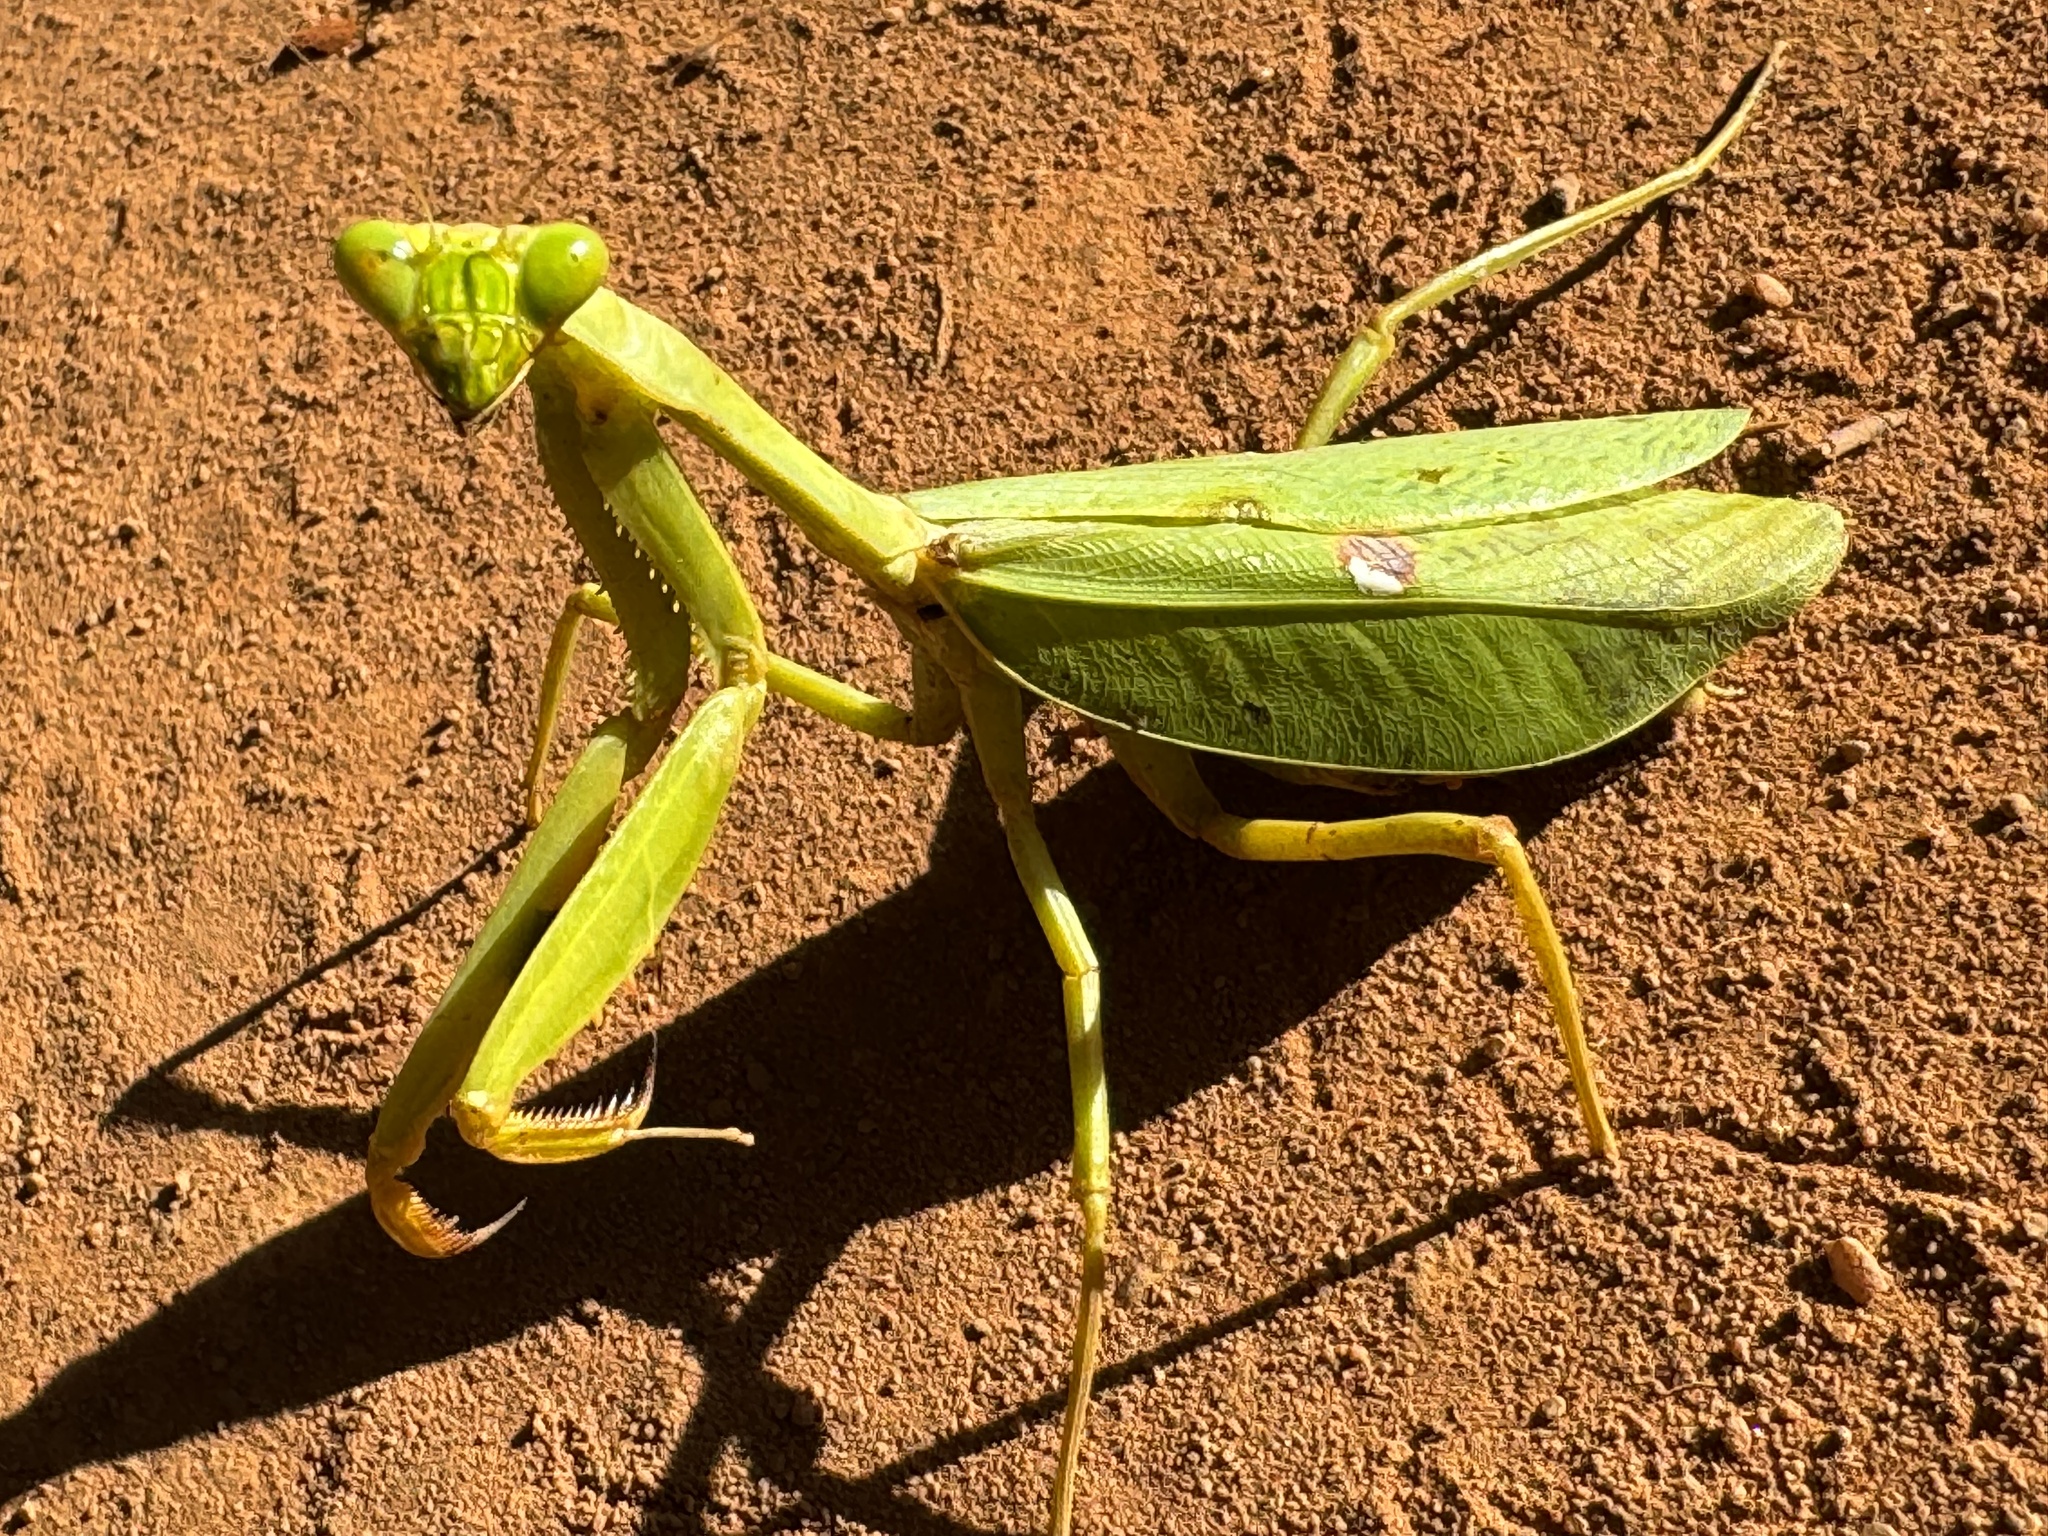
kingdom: Animalia
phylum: Arthropoda
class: Insecta
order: Mantodea
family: Mantidae
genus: Stagmatoptera
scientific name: Stagmatoptera pia
